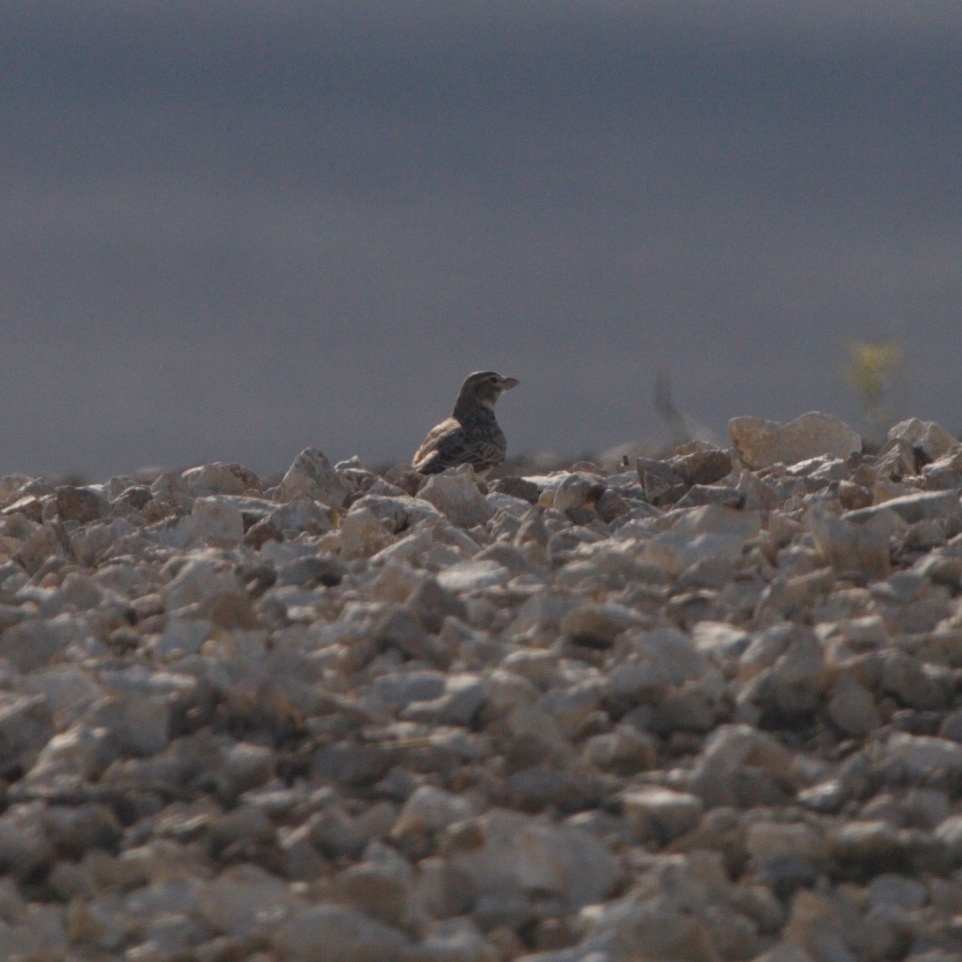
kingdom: Animalia
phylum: Chordata
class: Aves
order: Passeriformes
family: Alaudidae
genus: Melanocorypha
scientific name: Melanocorypha calandra
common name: Calandra lark
